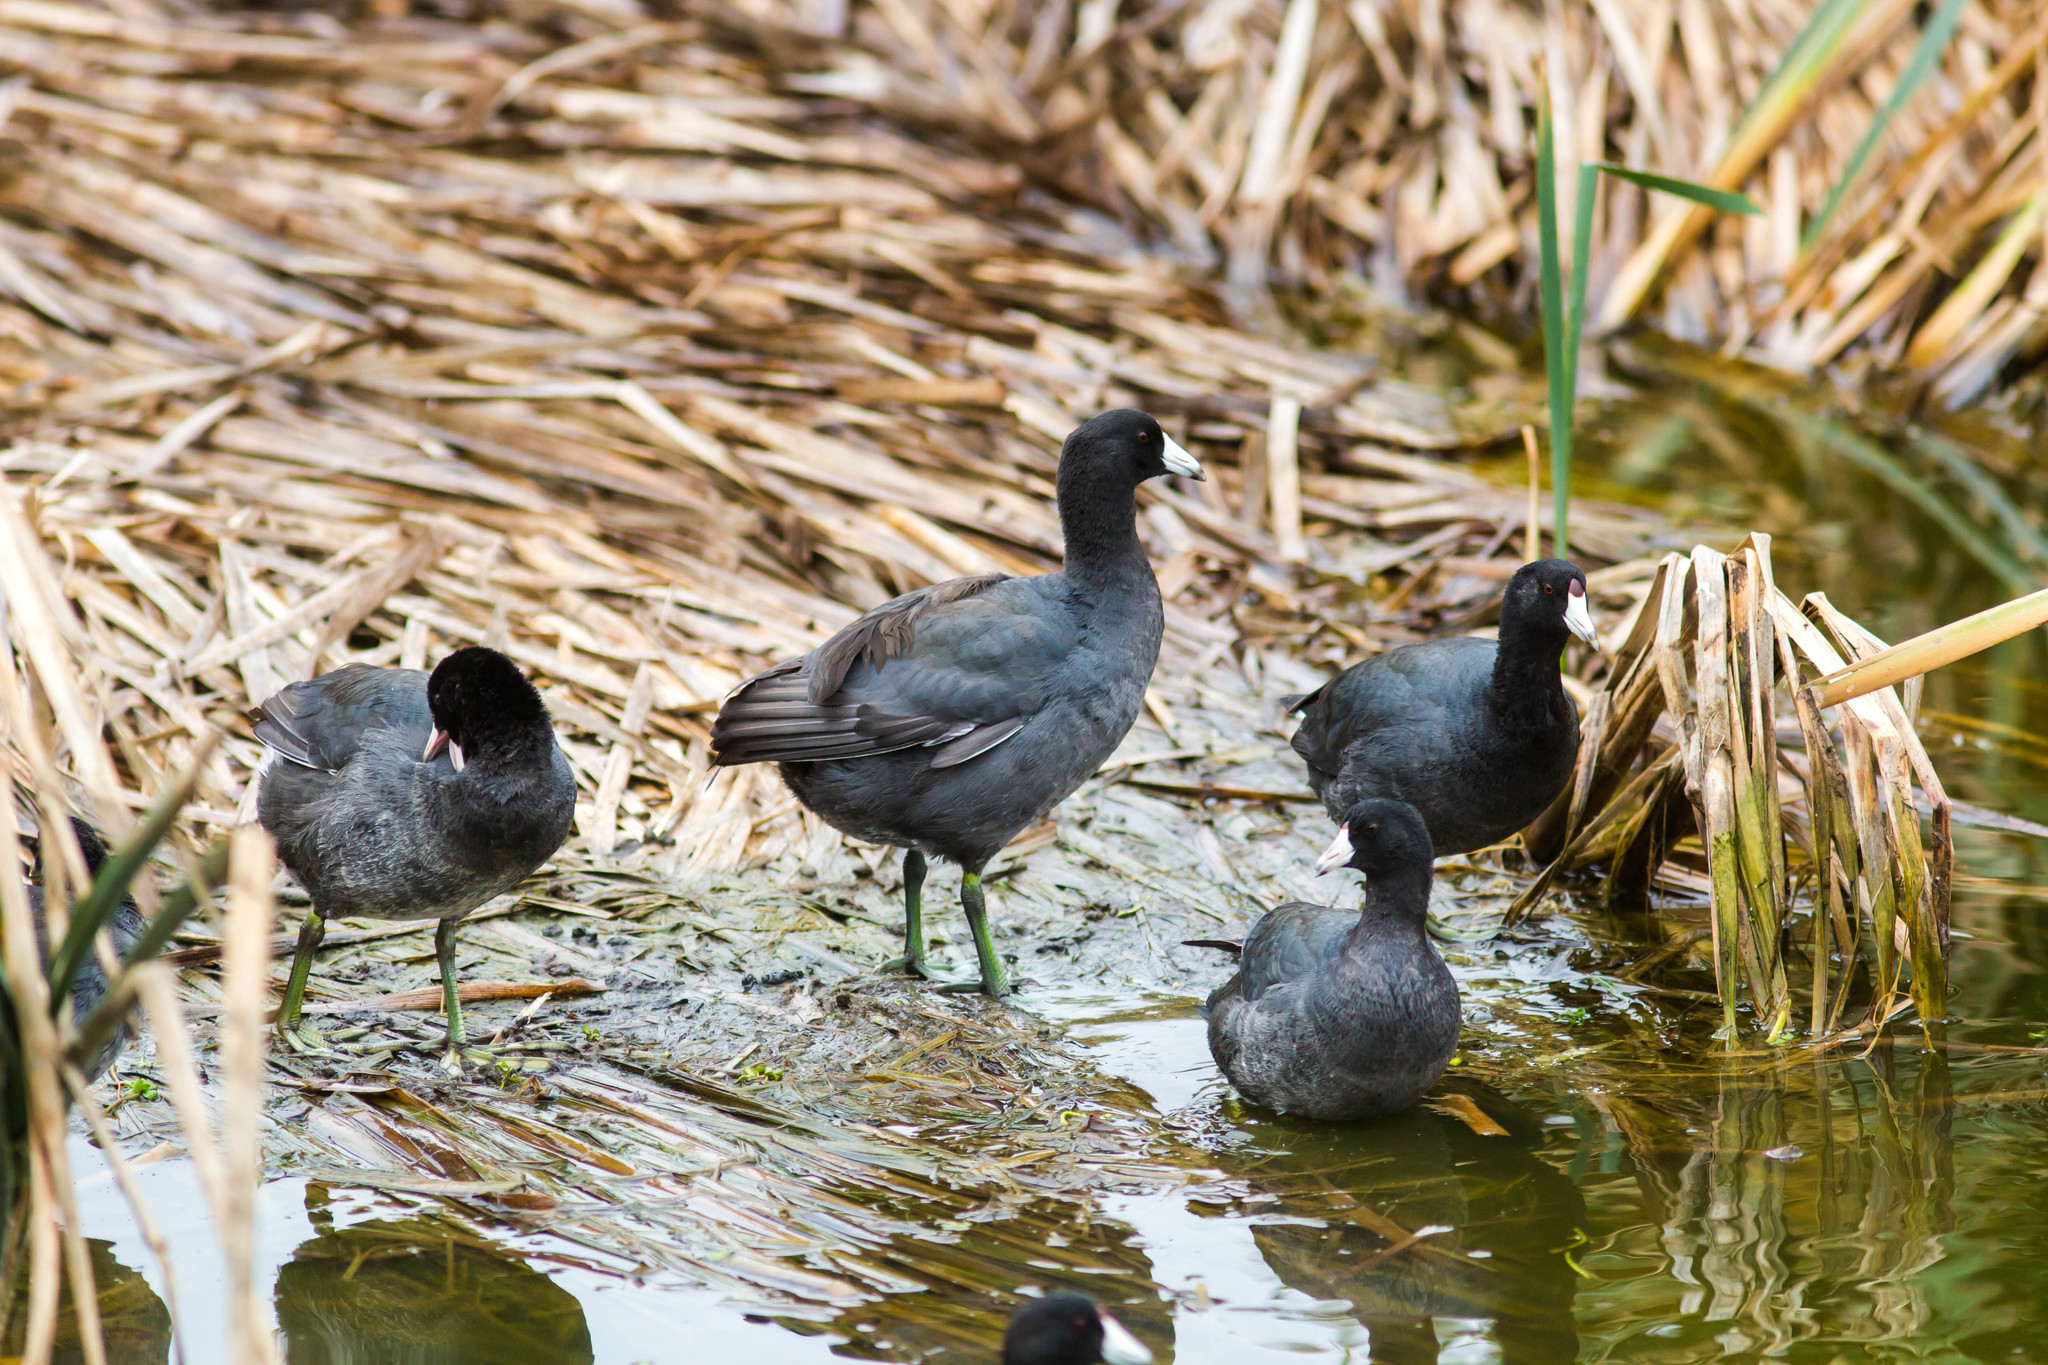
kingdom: Animalia
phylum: Chordata
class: Aves
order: Gruiformes
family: Rallidae
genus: Fulica
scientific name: Fulica americana
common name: American coot
